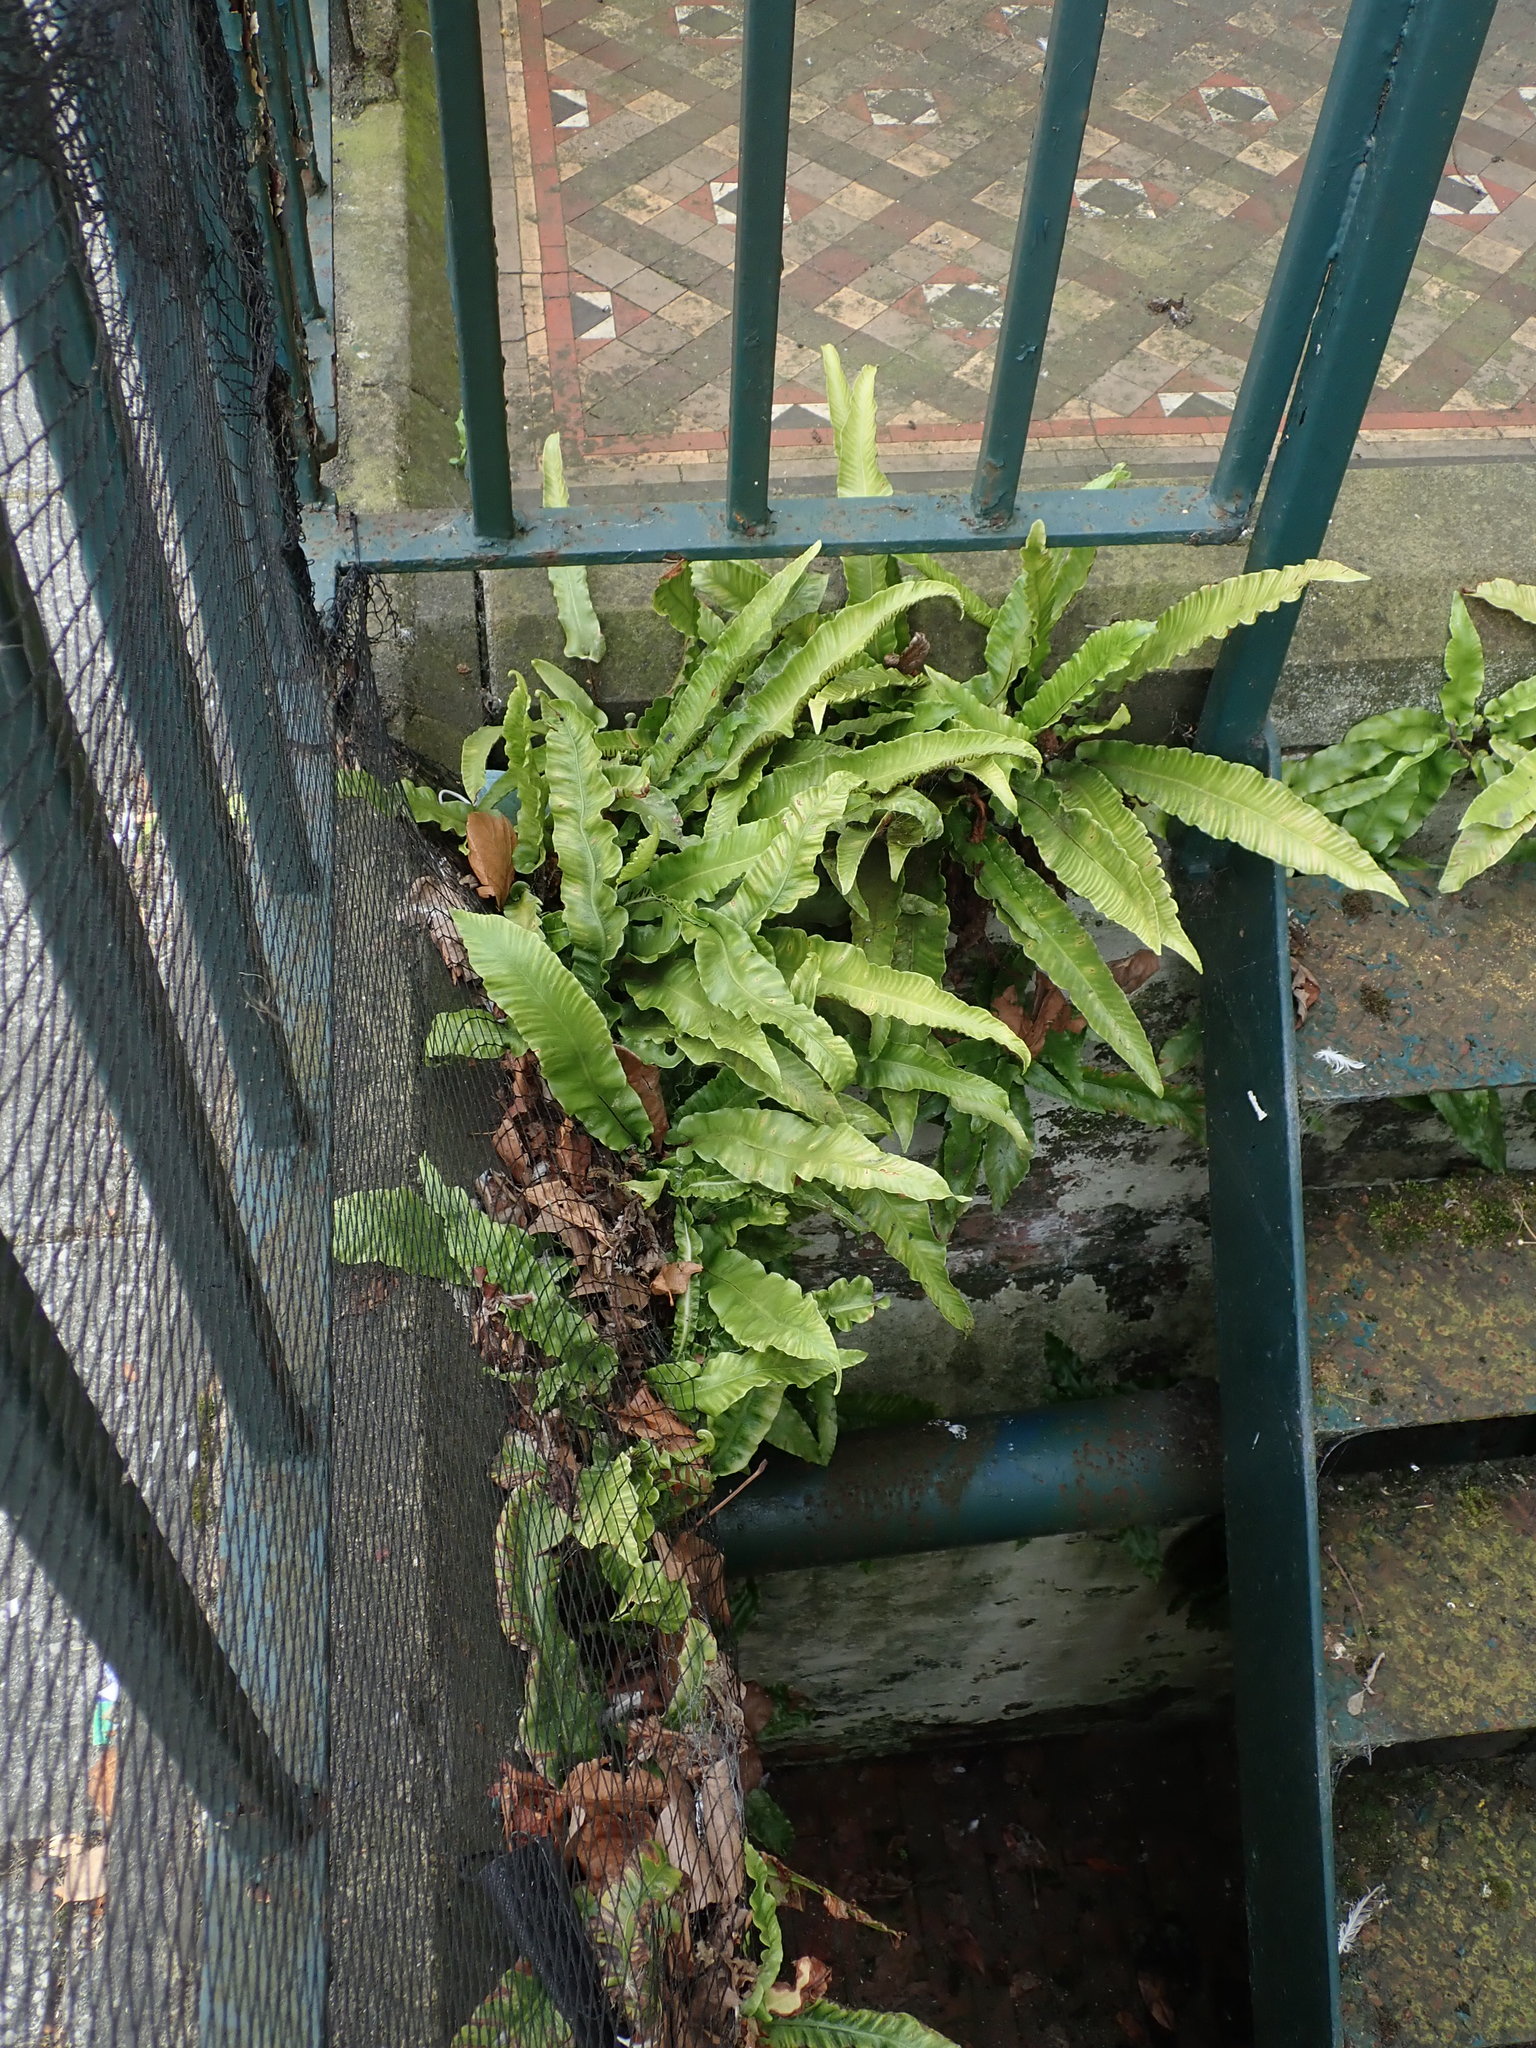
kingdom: Plantae
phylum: Tracheophyta
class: Polypodiopsida
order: Polypodiales
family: Aspleniaceae
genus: Asplenium
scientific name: Asplenium scolopendrium
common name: Hart's-tongue fern
